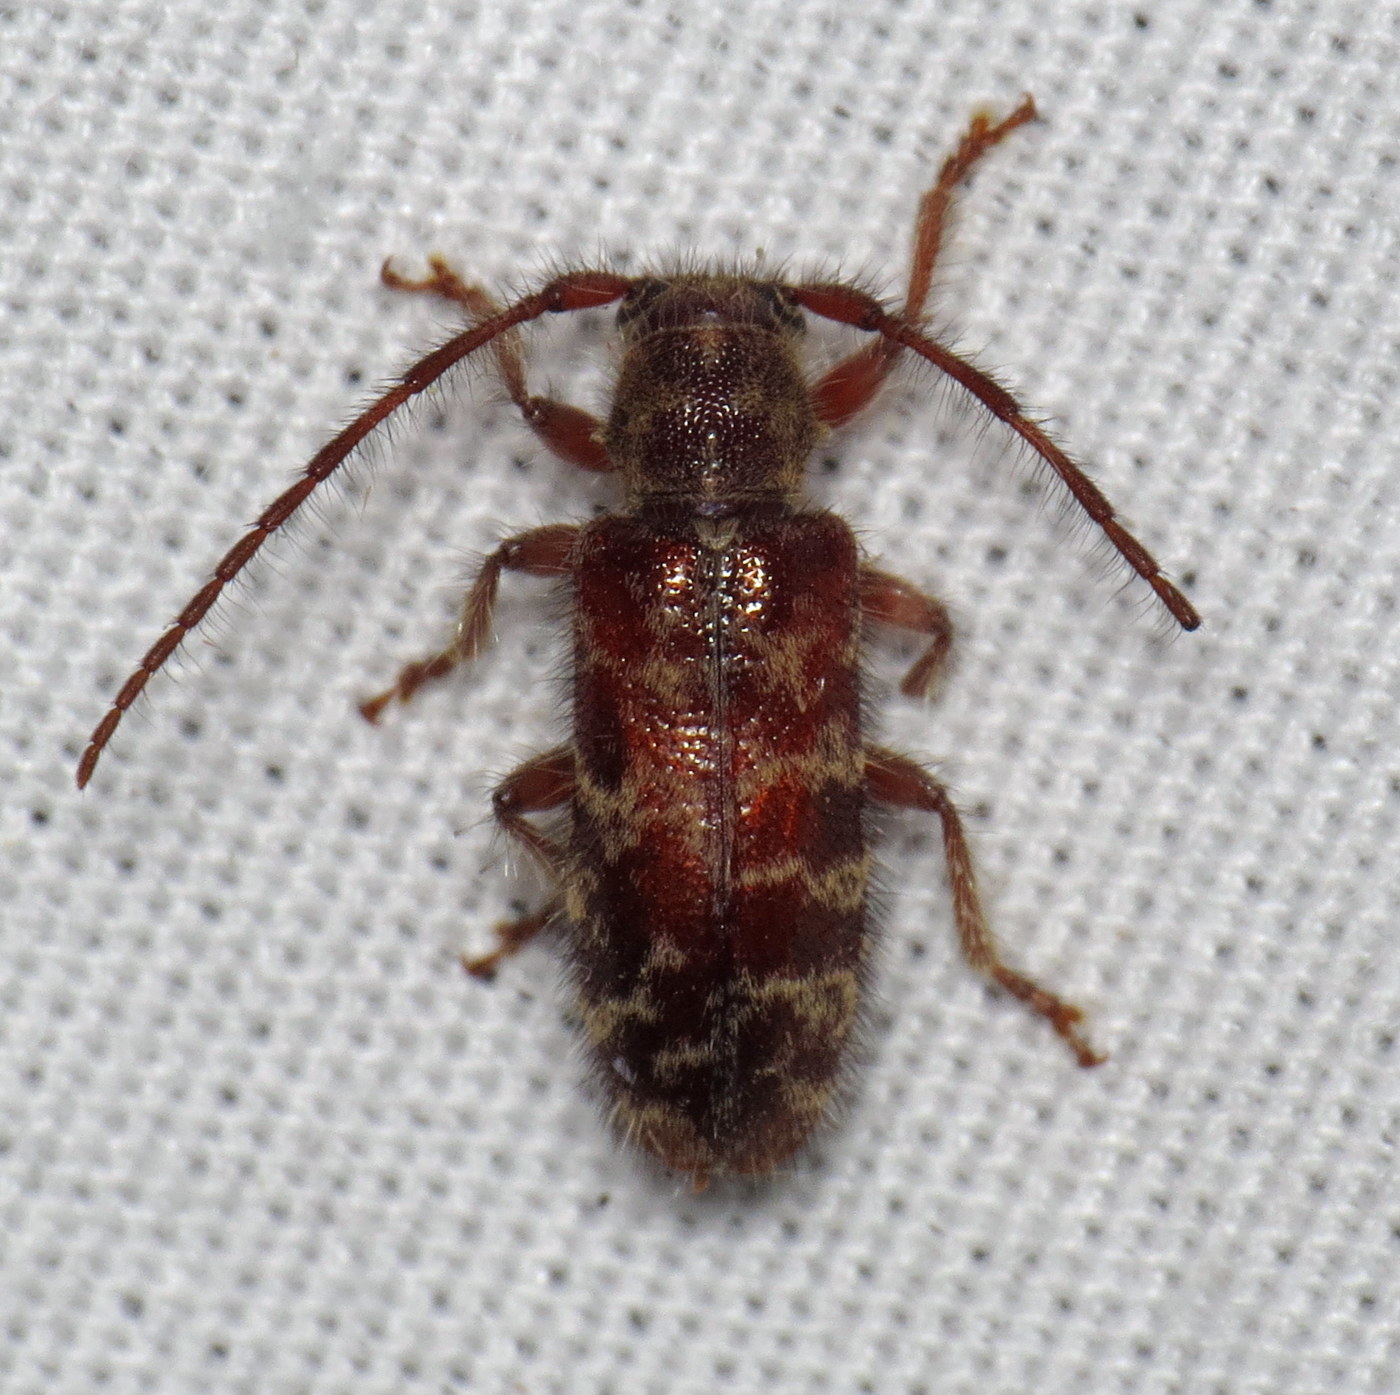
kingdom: Animalia
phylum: Arthropoda
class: Insecta
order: Coleoptera
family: Cerambycidae
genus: Eupogonius
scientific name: Eupogonius tomentosus
